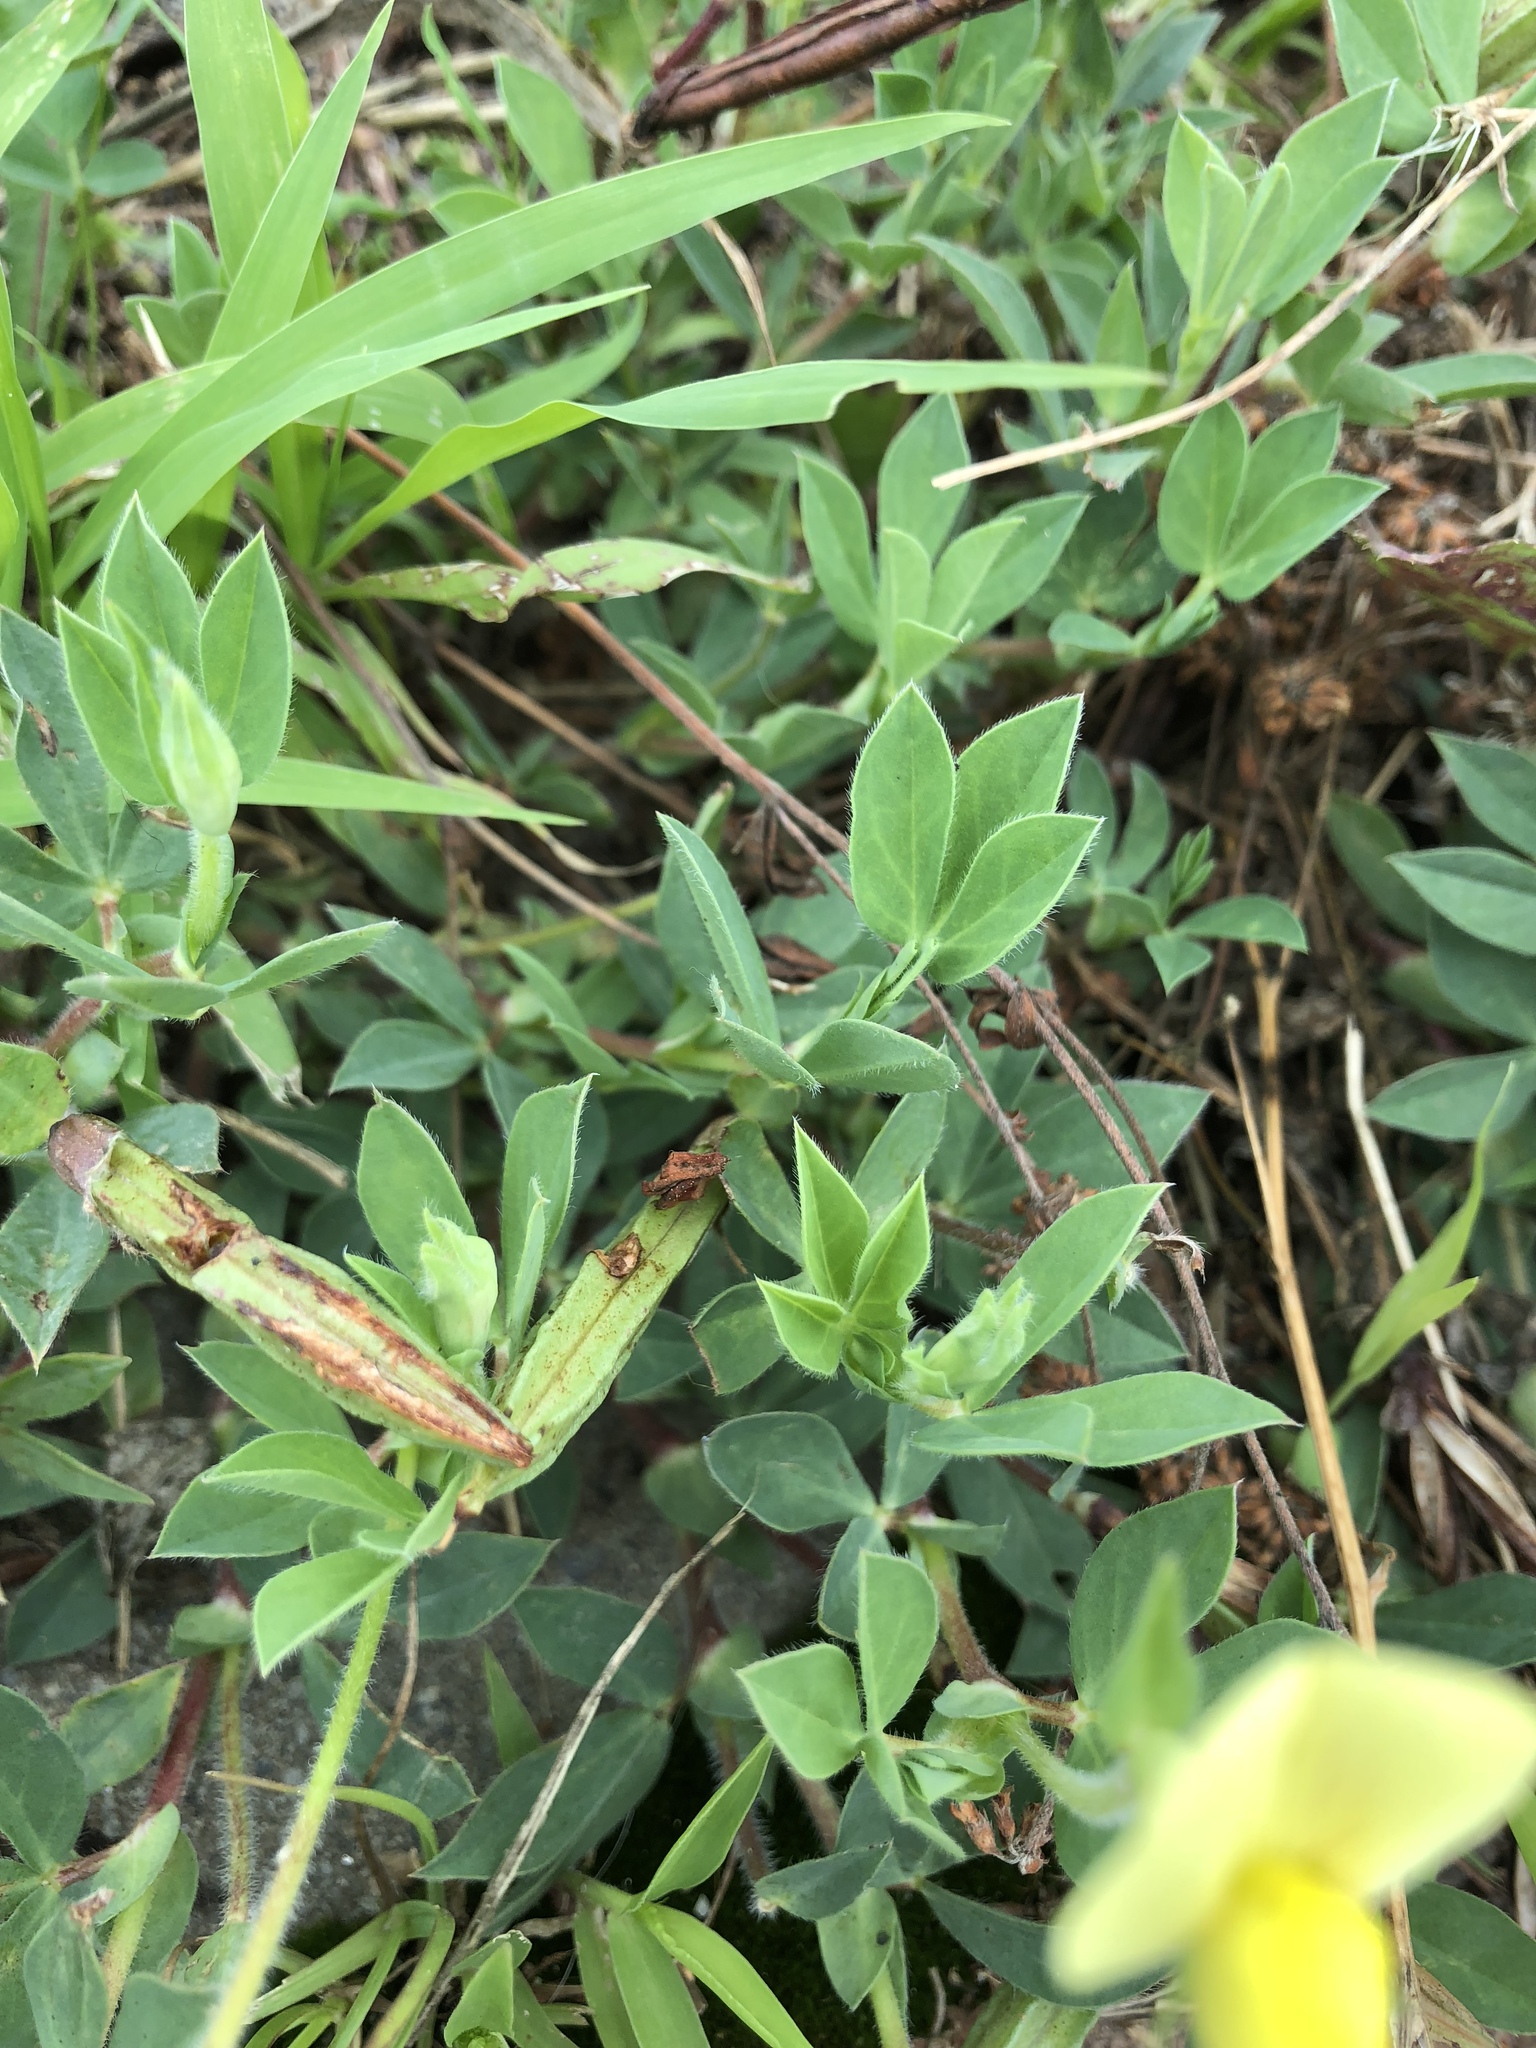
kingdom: Plantae
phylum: Tracheophyta
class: Magnoliopsida
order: Fabales
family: Fabaceae
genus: Lotus
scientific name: Lotus maritimus
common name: Dragon's-teeth
